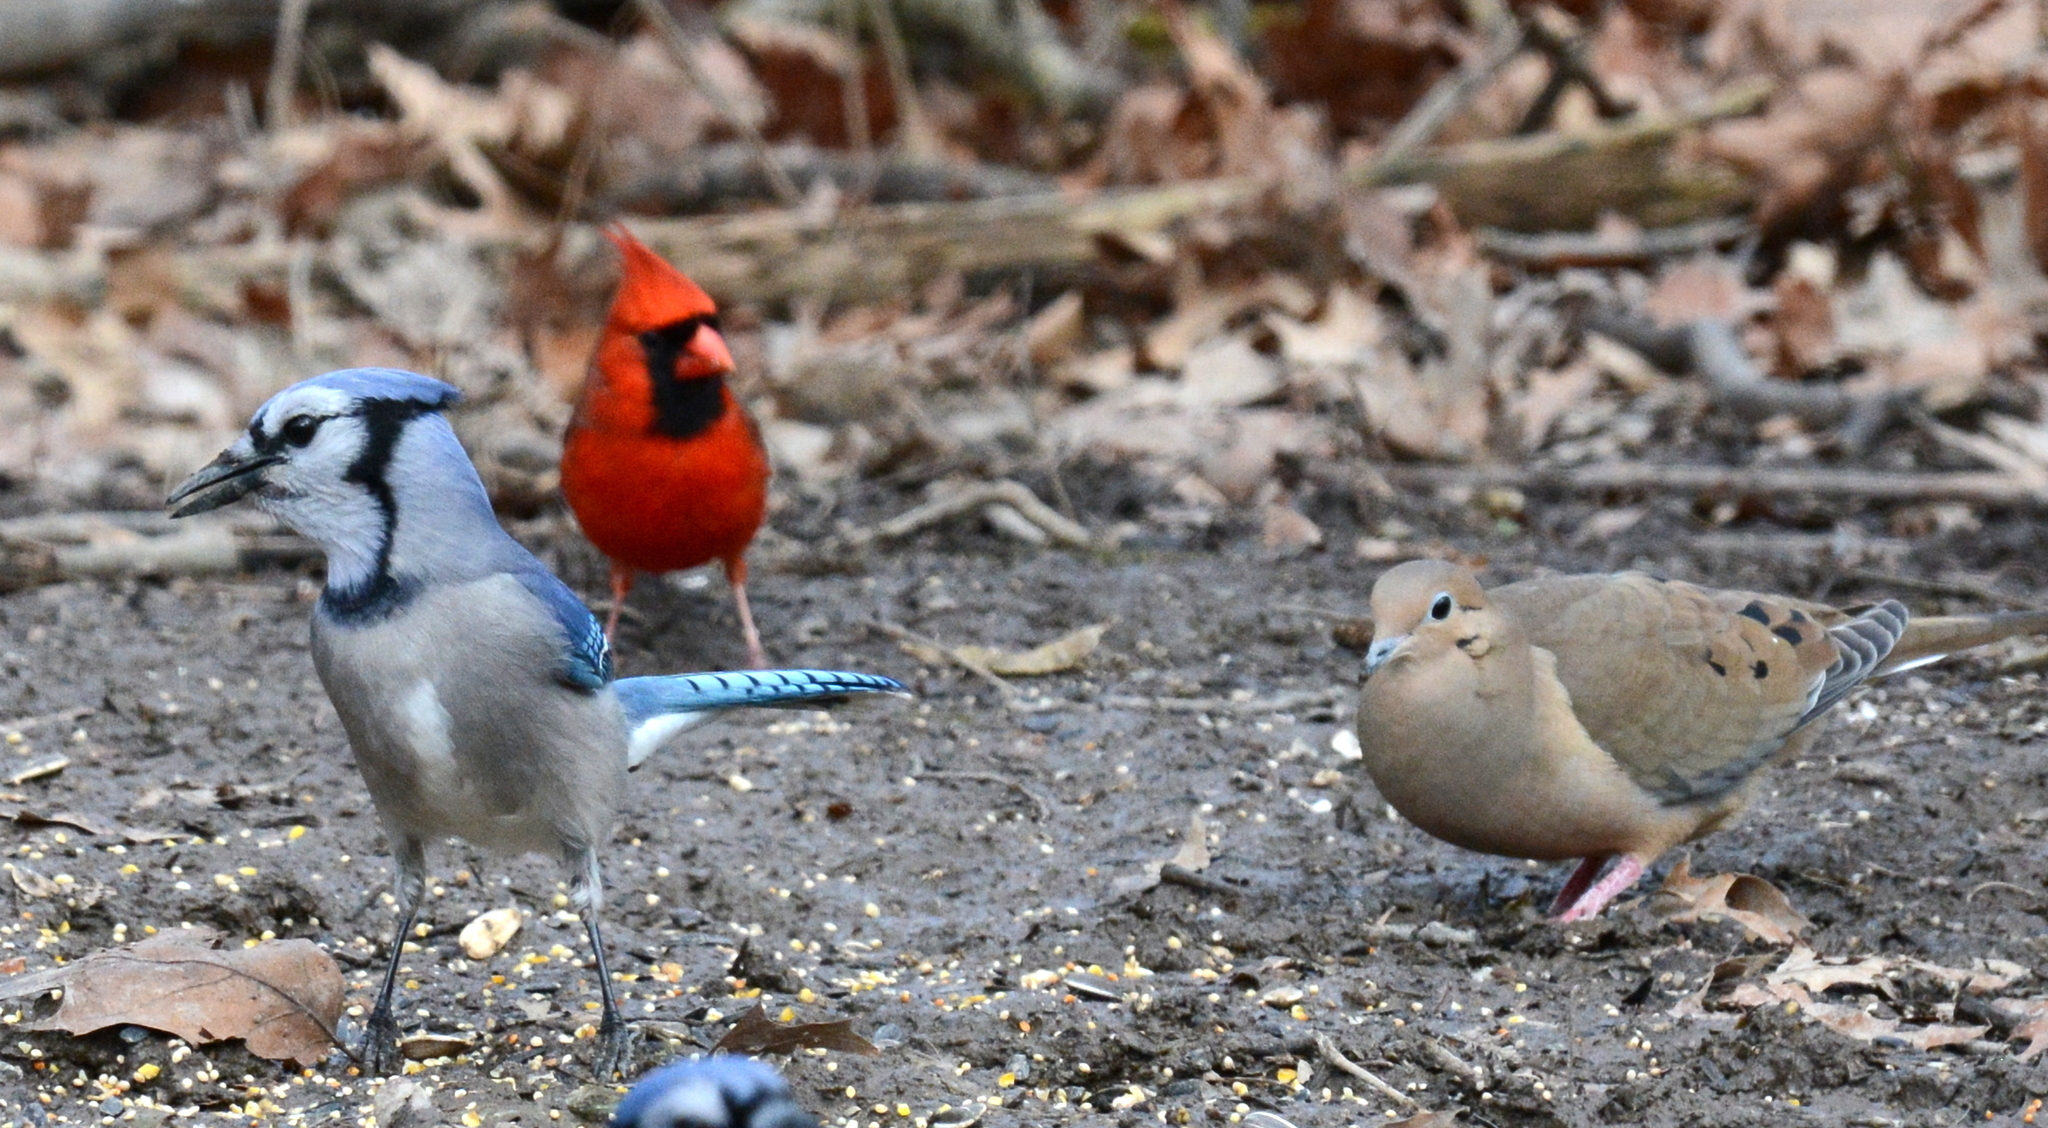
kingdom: Animalia
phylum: Chordata
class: Aves
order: Passeriformes
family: Cardinalidae
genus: Cardinalis
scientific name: Cardinalis cardinalis
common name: Northern cardinal
